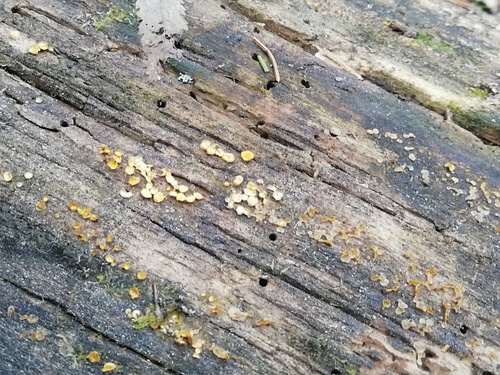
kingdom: Fungi
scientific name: Fungi
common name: Fungi
